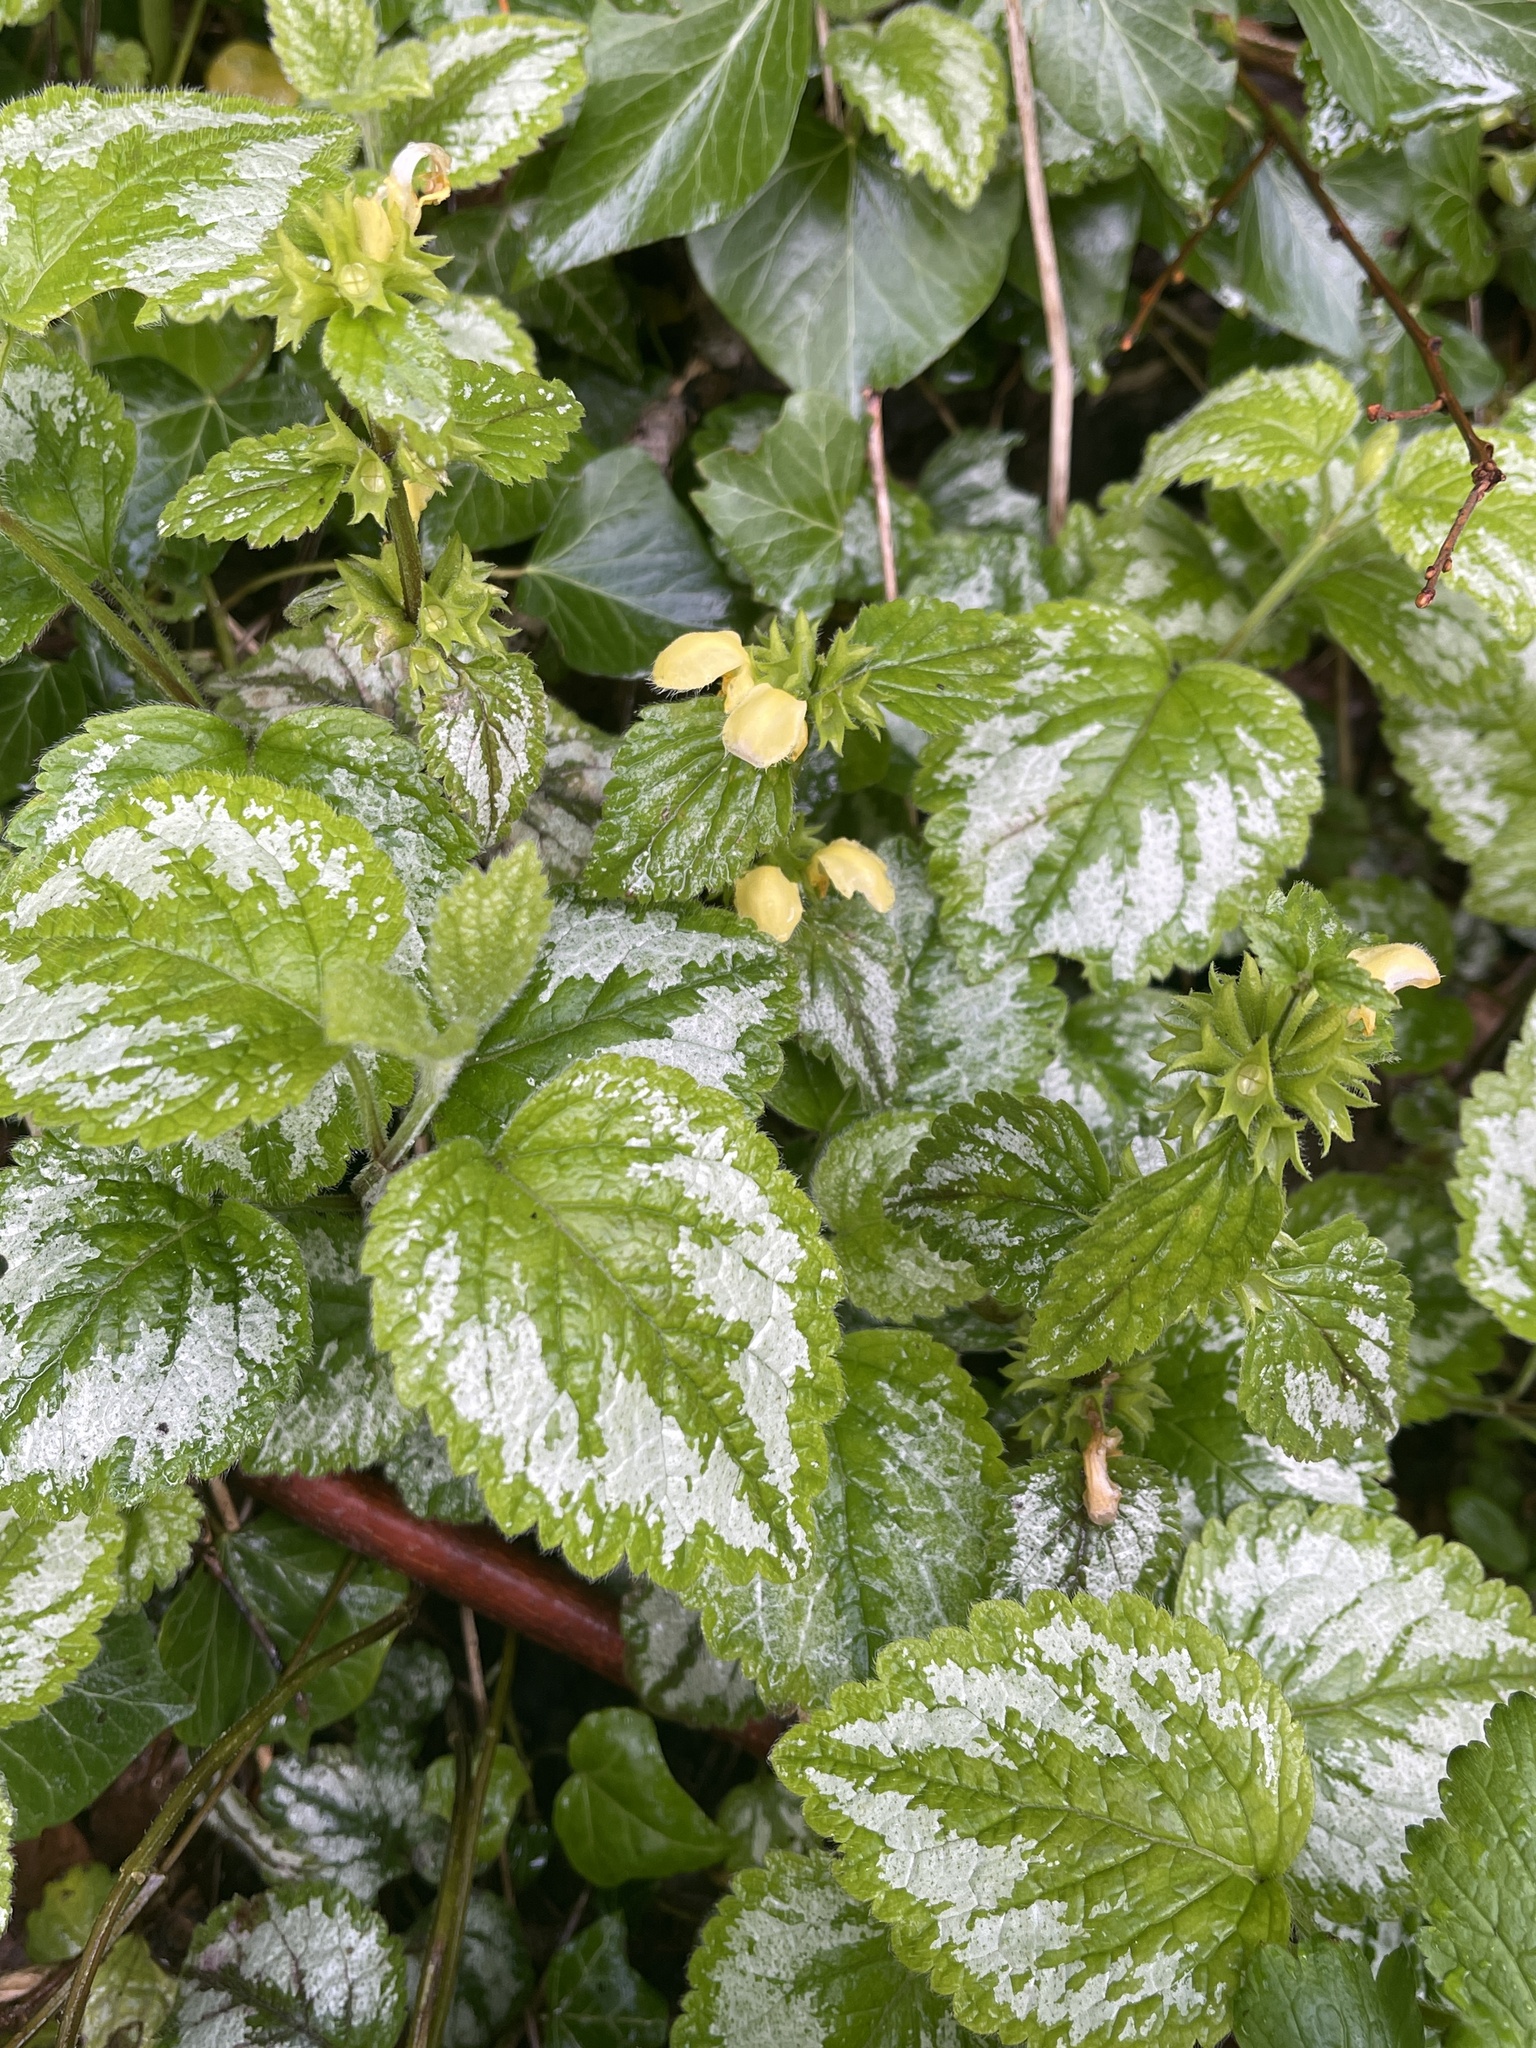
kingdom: Plantae
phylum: Tracheophyta
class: Magnoliopsida
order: Lamiales
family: Lamiaceae
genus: Lamium
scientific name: Lamium galeobdolon
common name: Yellow archangel
